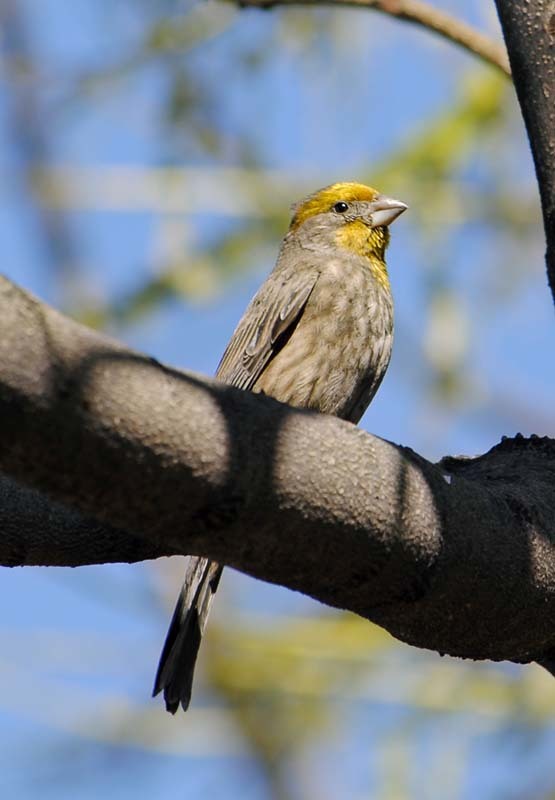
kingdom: Animalia
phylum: Chordata
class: Aves
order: Passeriformes
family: Fringillidae
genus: Haemorhous
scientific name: Haemorhous mexicanus
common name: House finch
